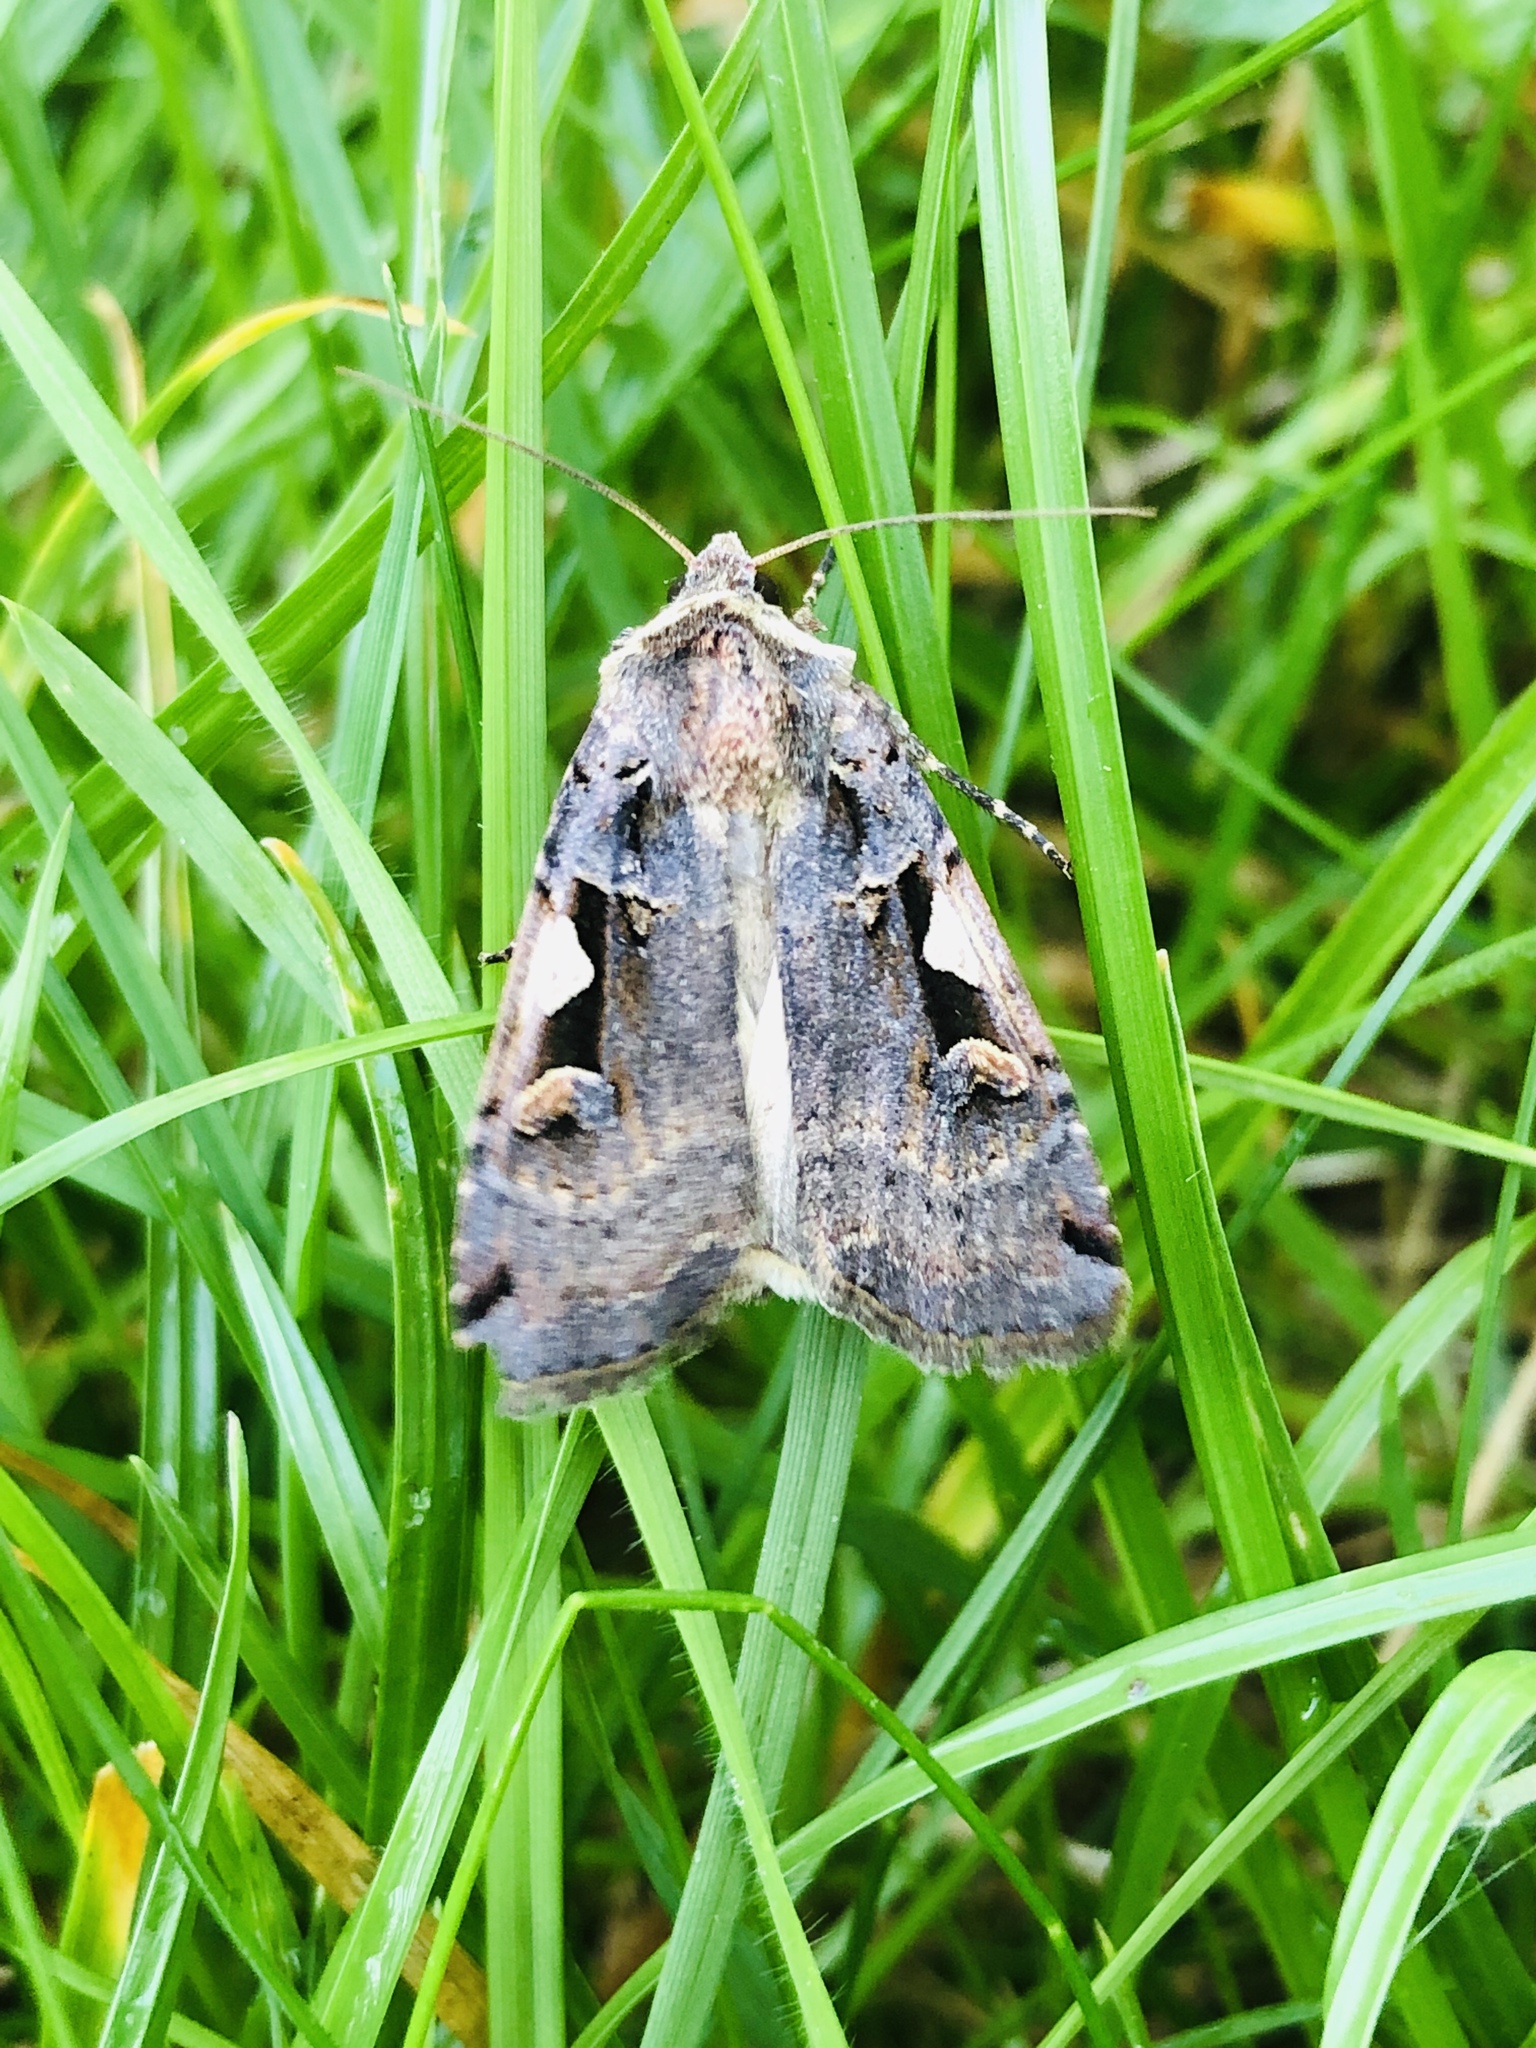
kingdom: Animalia
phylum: Arthropoda
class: Insecta
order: Lepidoptera
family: Noctuidae
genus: Xestia
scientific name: Xestia c-nigrum
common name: Setaceous hebrew character
